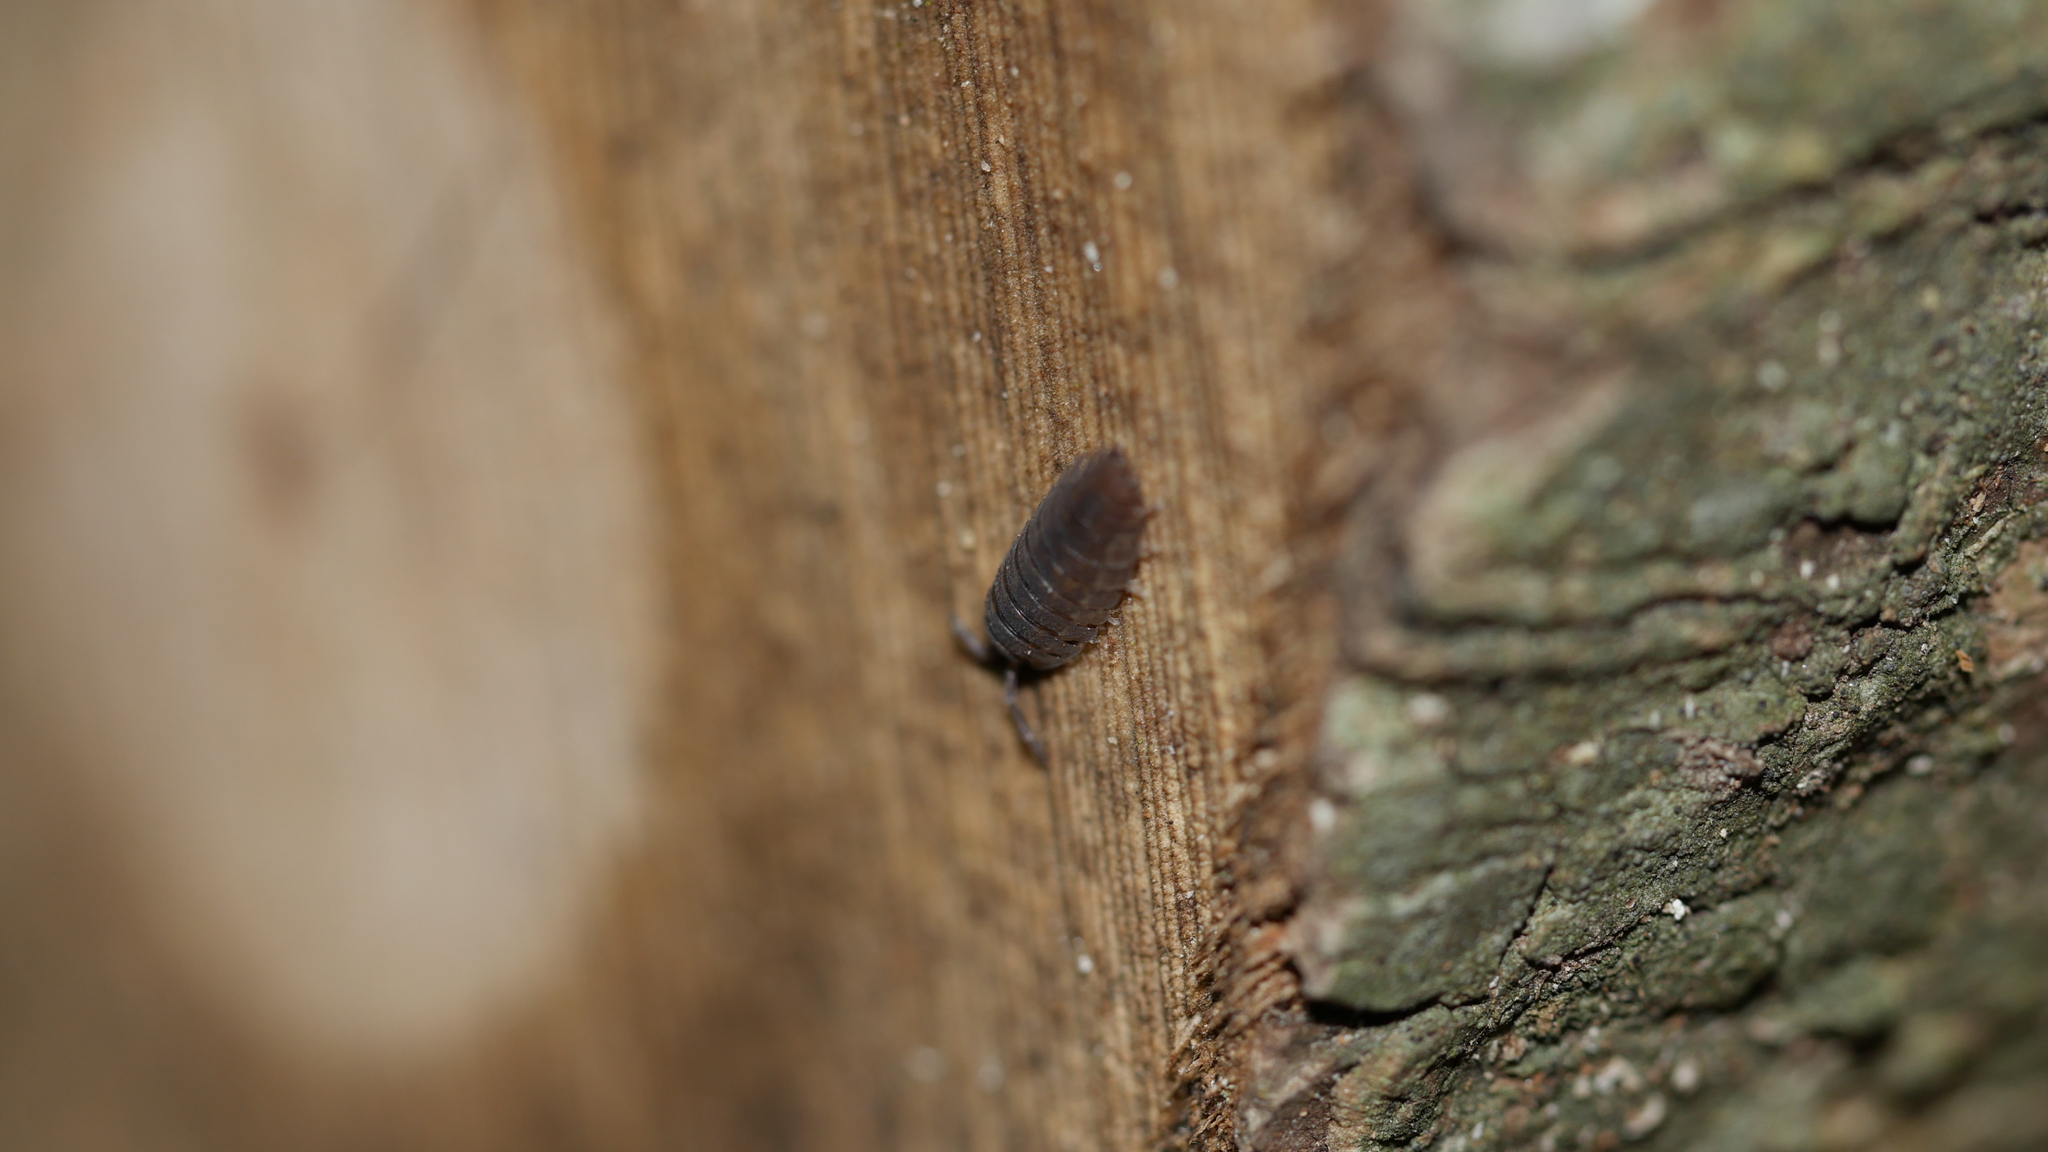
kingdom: Animalia
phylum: Arthropoda
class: Malacostraca
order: Isopoda
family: Porcellionidae
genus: Porcellio
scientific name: Porcellio scaber
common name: Common rough woodlouse
